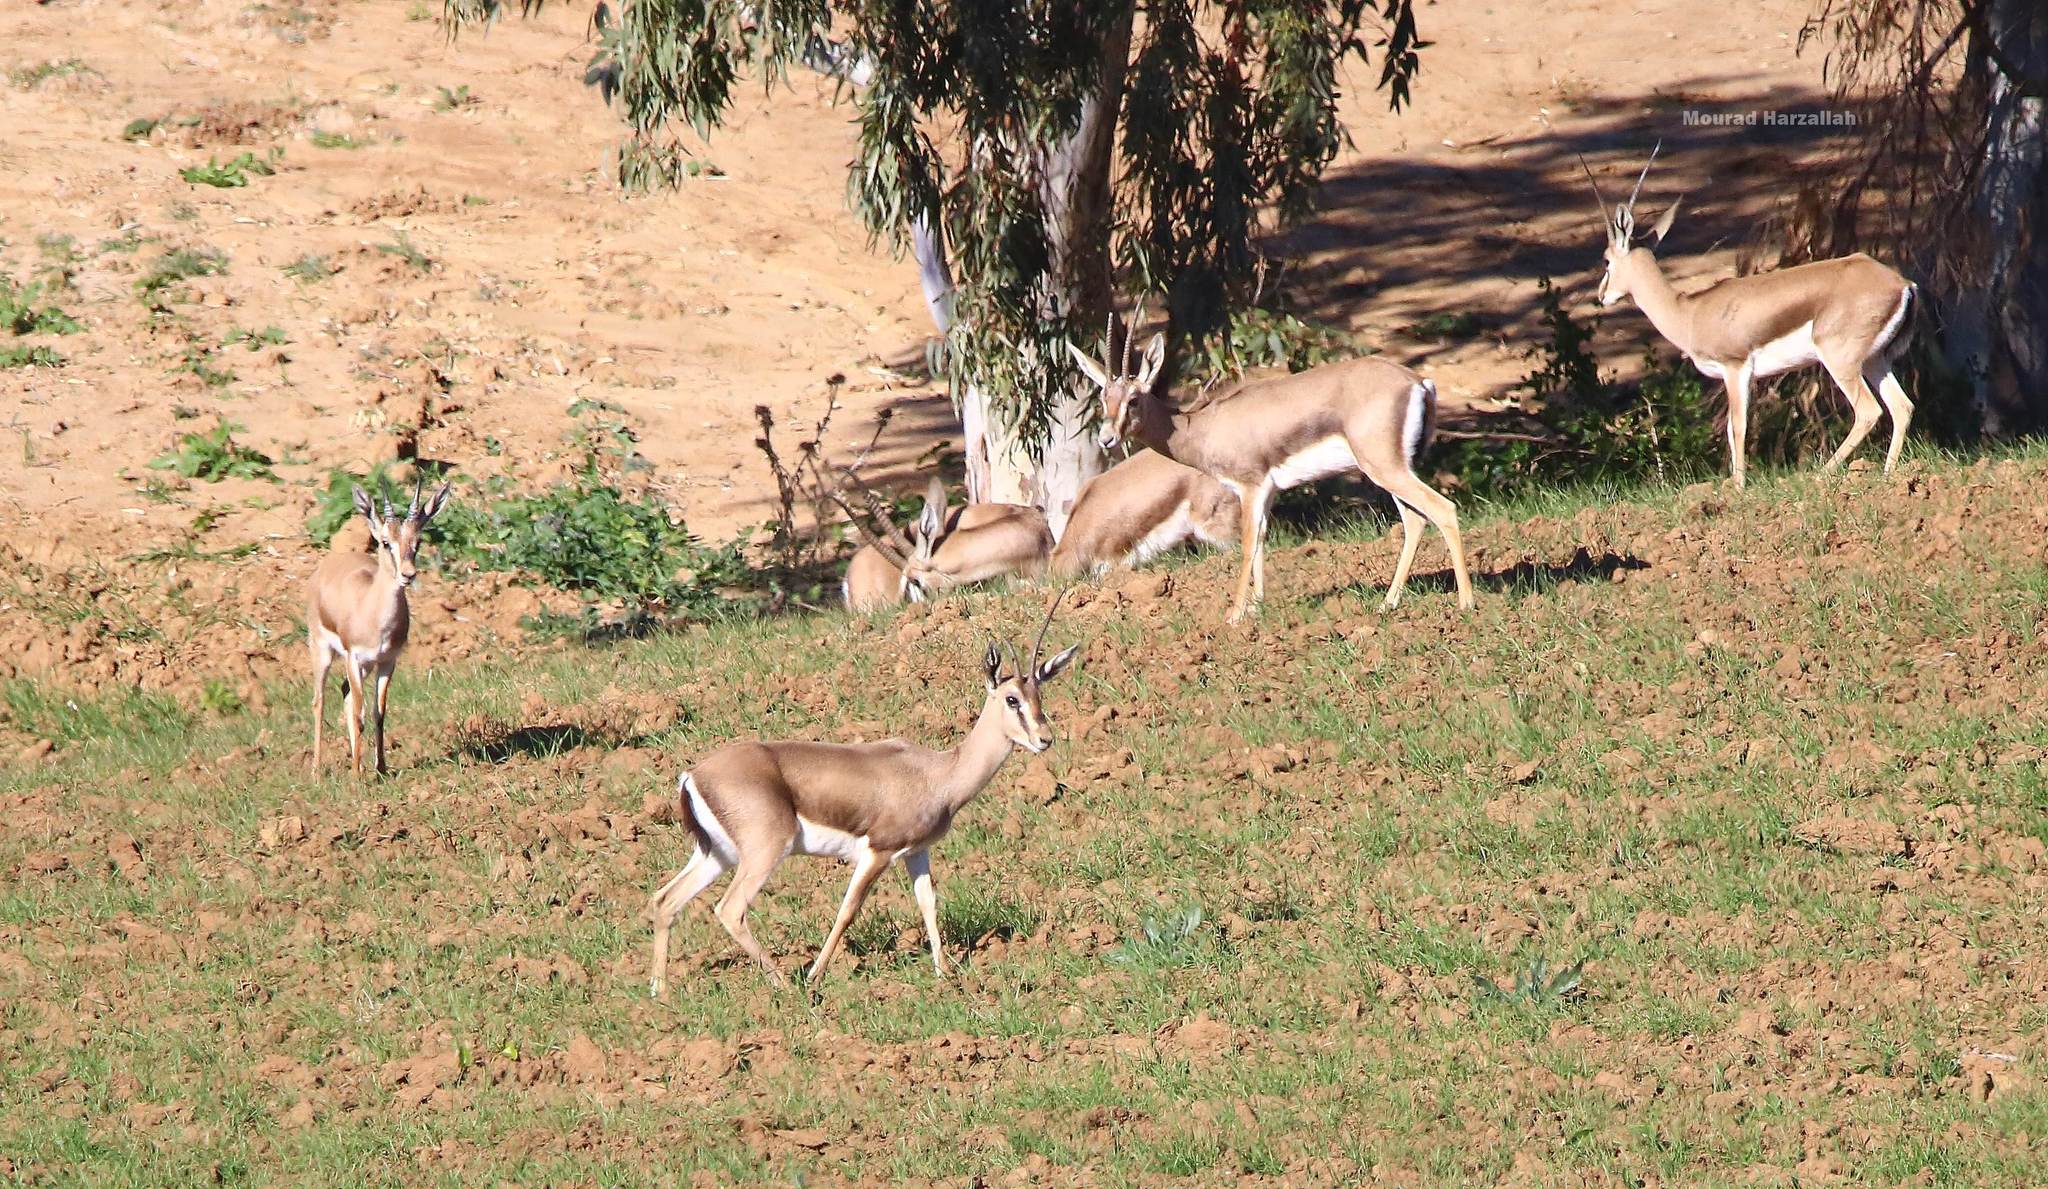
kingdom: Animalia
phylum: Chordata
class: Mammalia
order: Artiodactyla
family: Bovidae
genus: Gazella
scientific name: Gazella cuvieri
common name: Cuvier's gazelle
